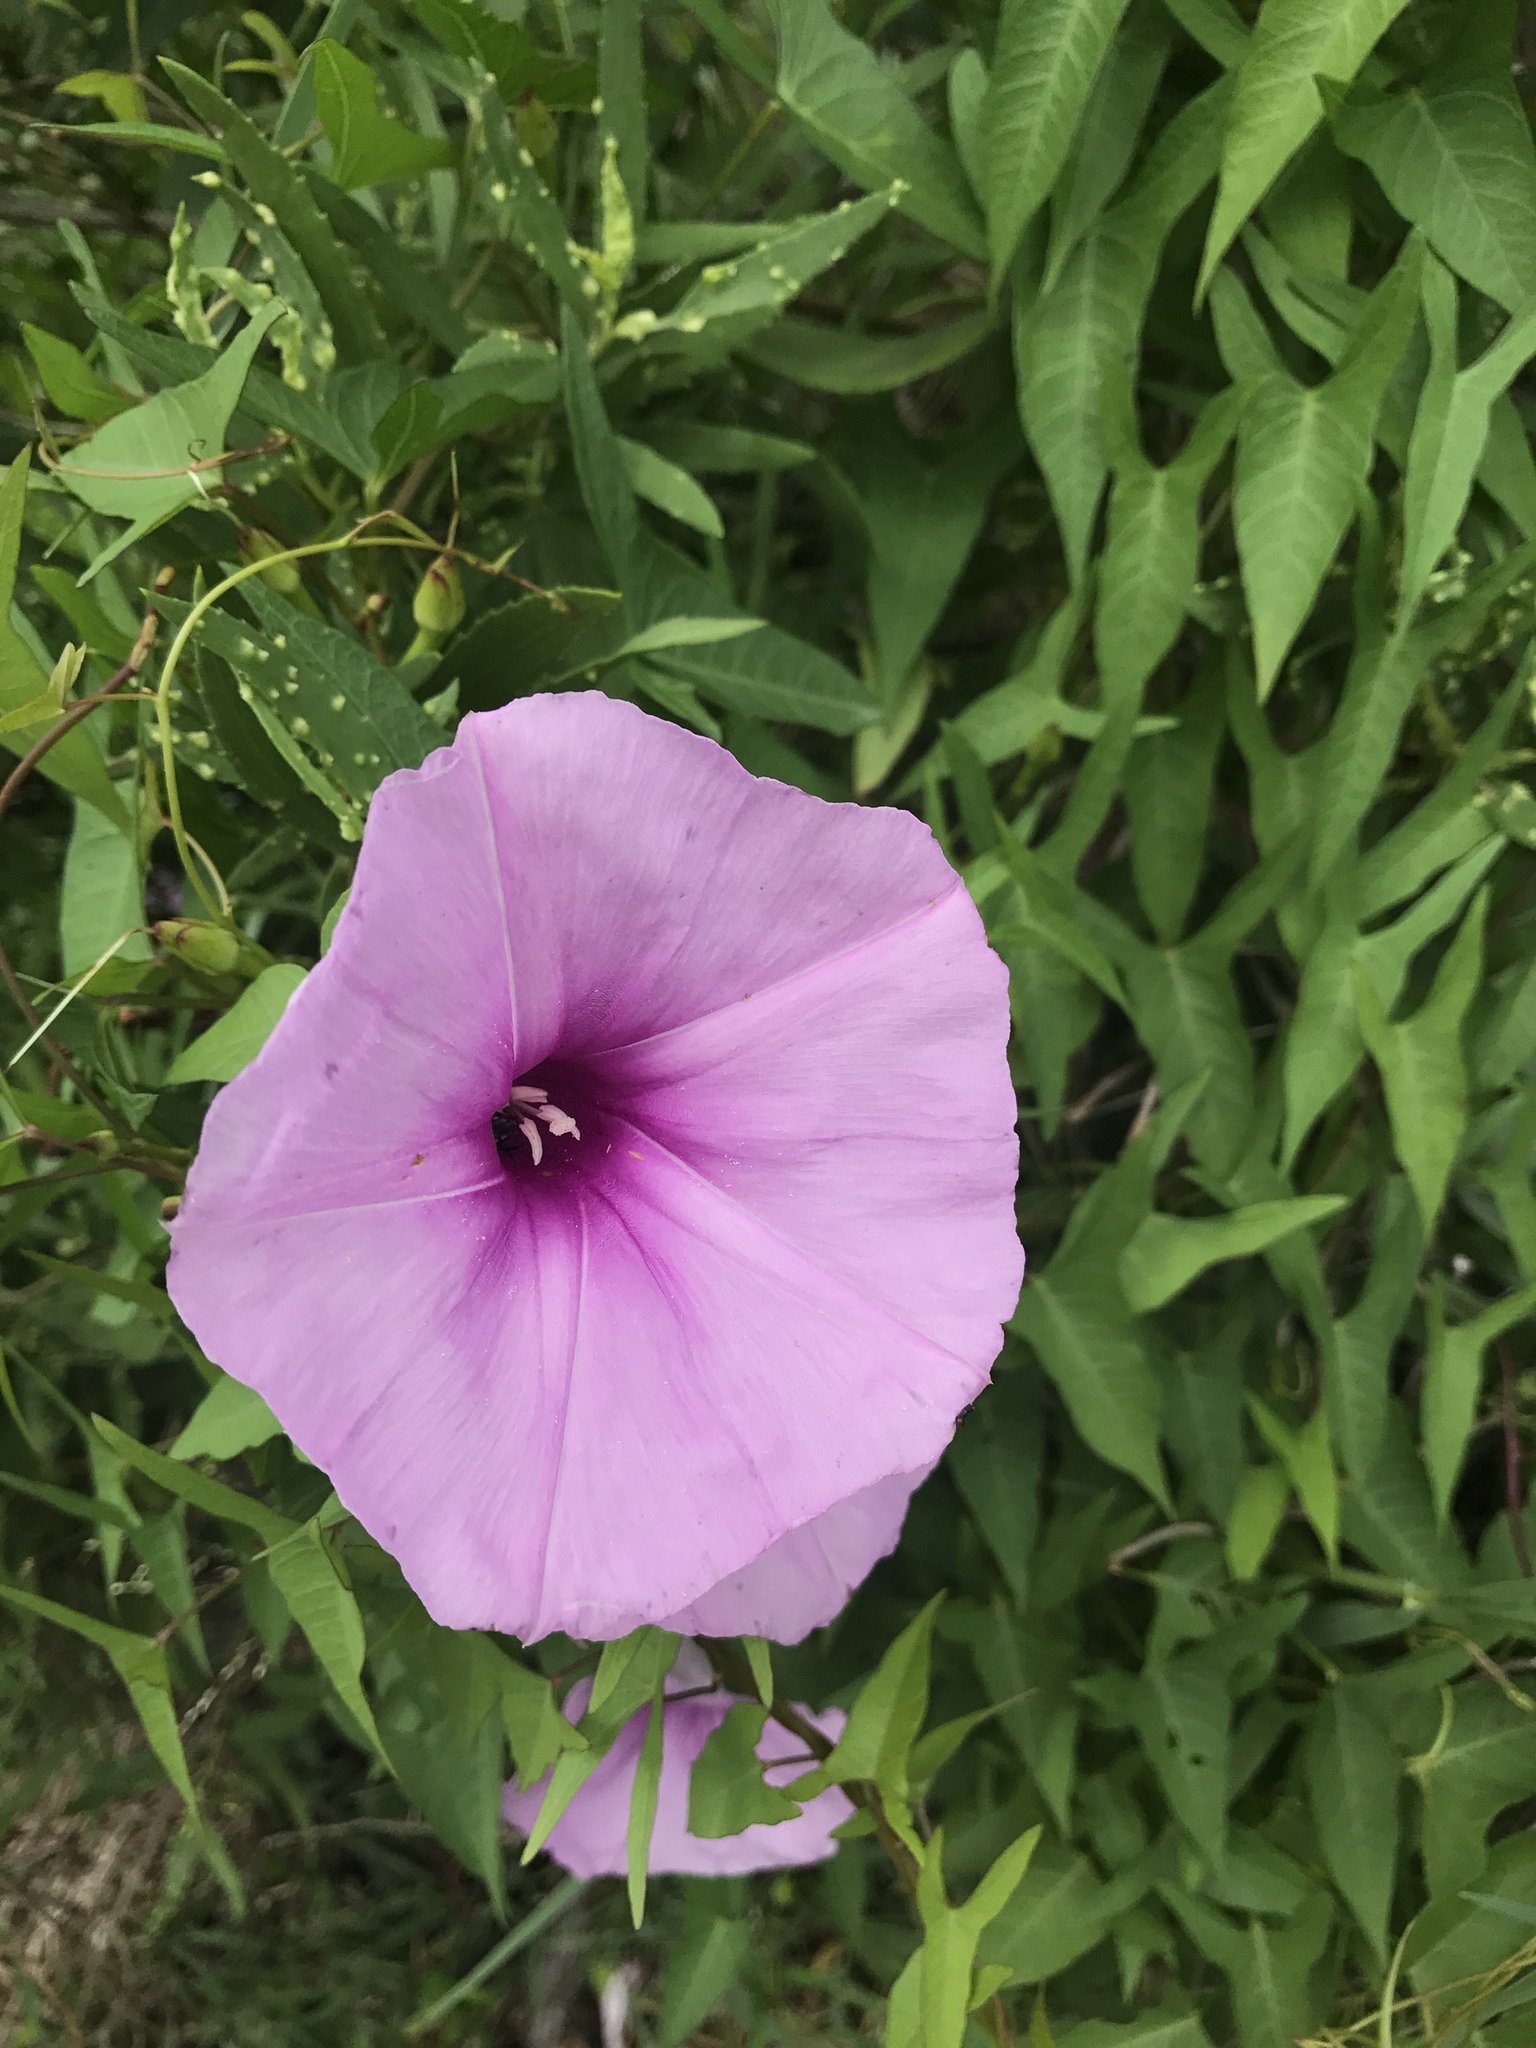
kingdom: Plantae
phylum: Tracheophyta
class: Magnoliopsida
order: Solanales
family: Convolvulaceae
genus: Ipomoea
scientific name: Ipomoea sagittata
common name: Saltmarsh morning glory
